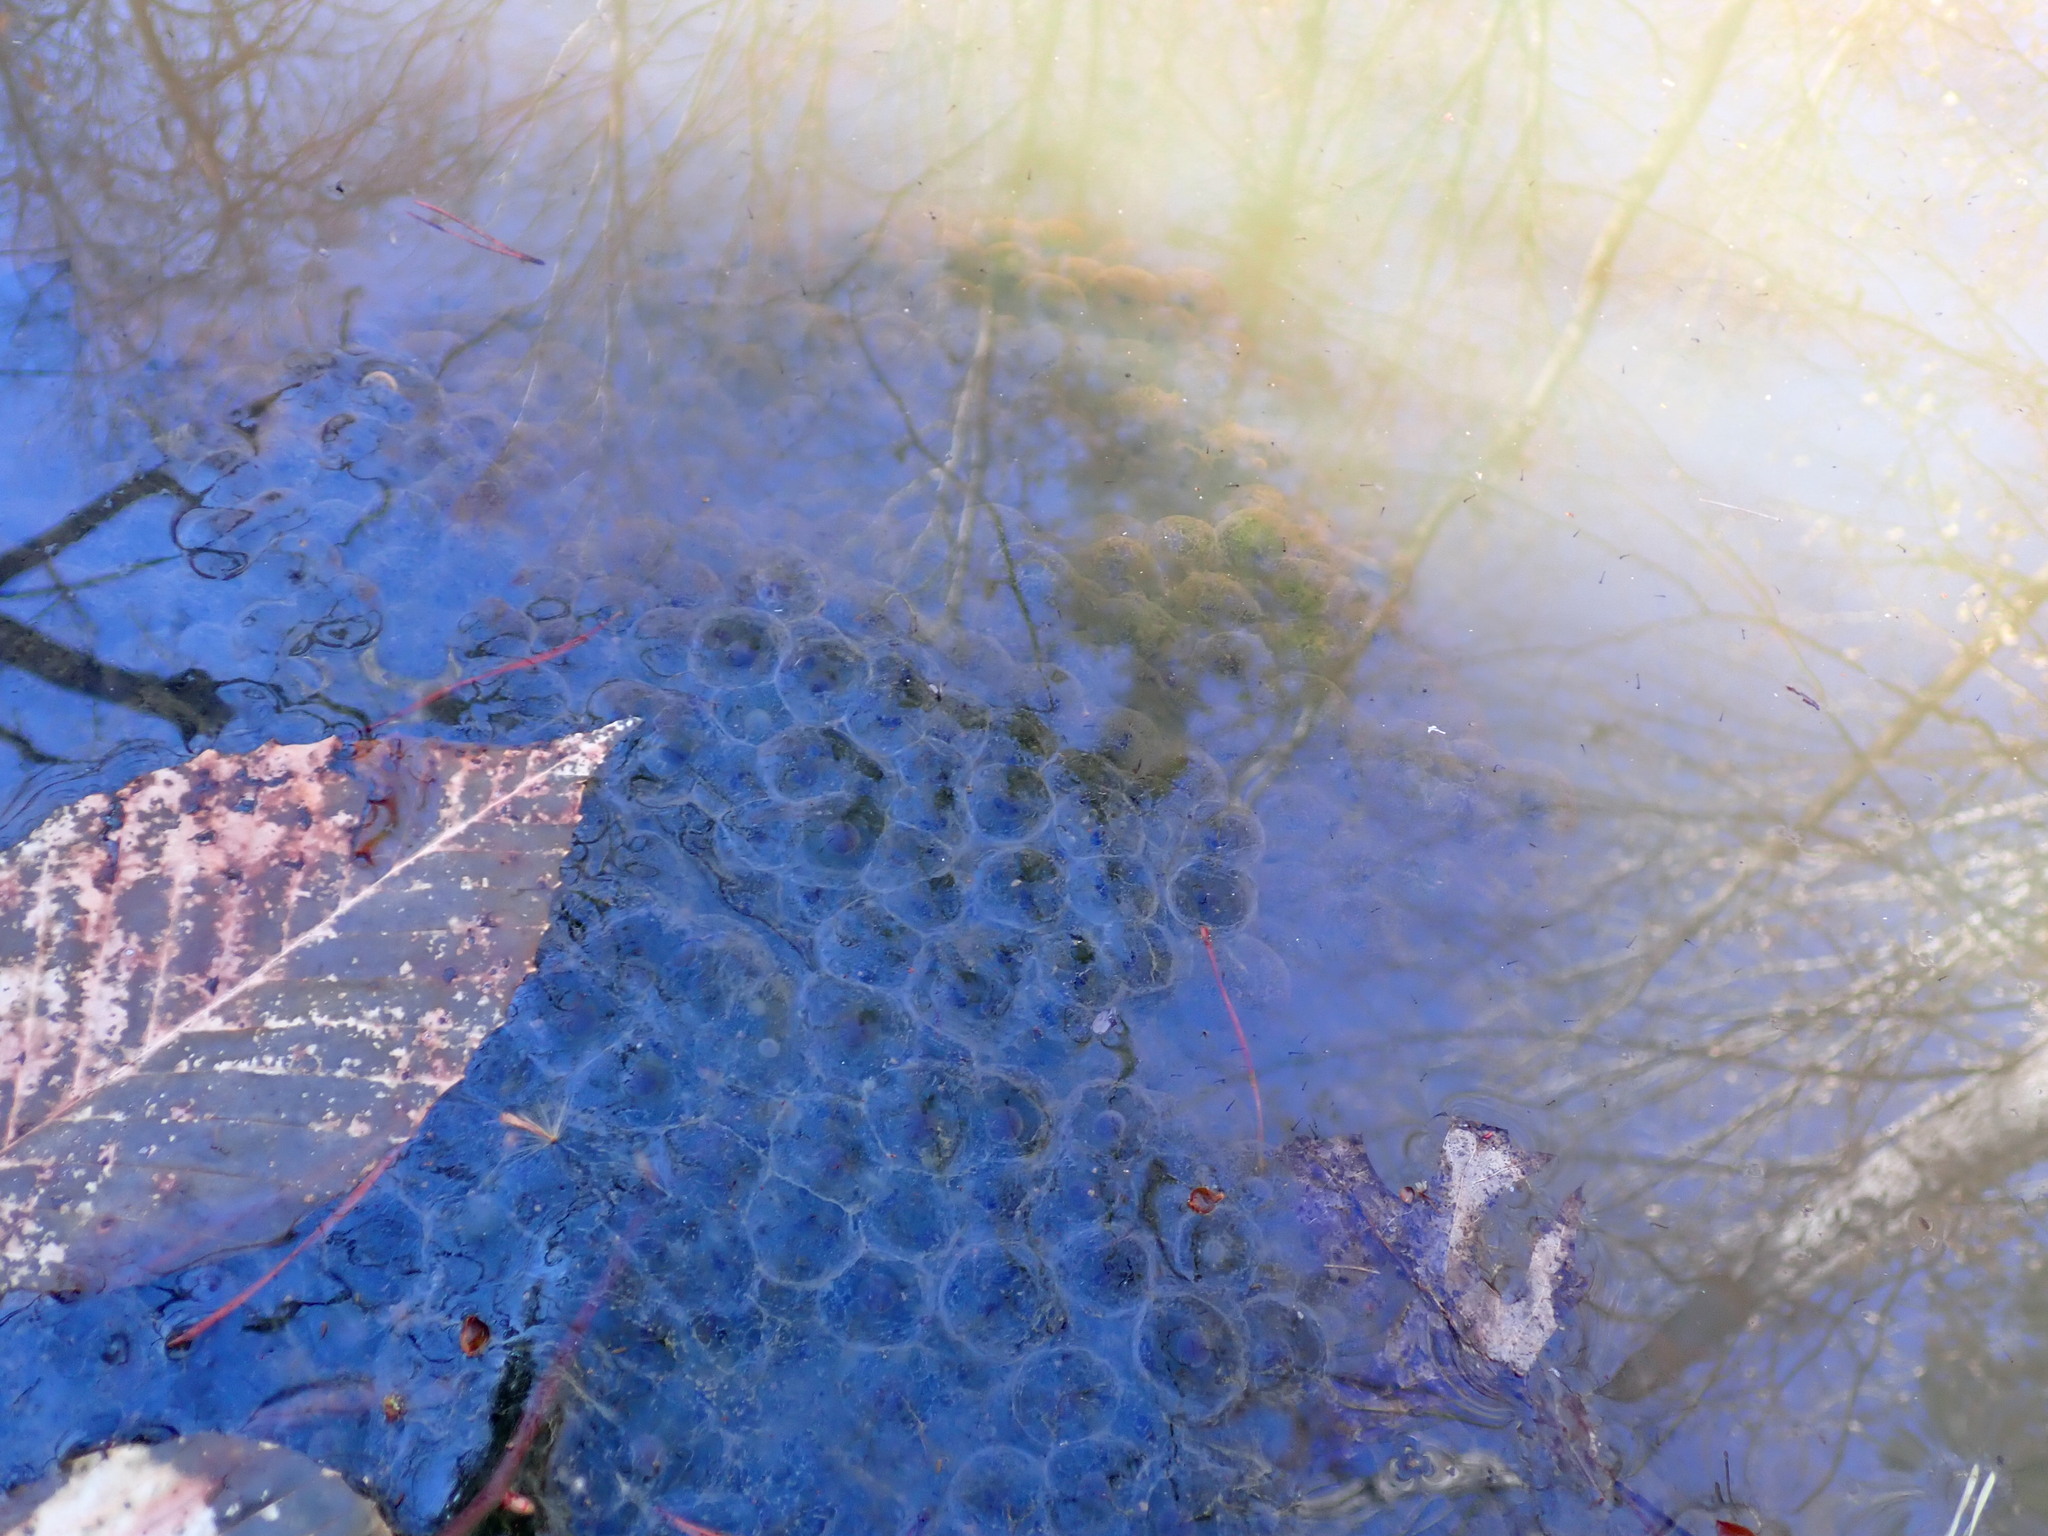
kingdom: Animalia
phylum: Chordata
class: Amphibia
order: Anura
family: Ranidae
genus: Lithobates
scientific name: Lithobates sylvaticus
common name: Wood frog
